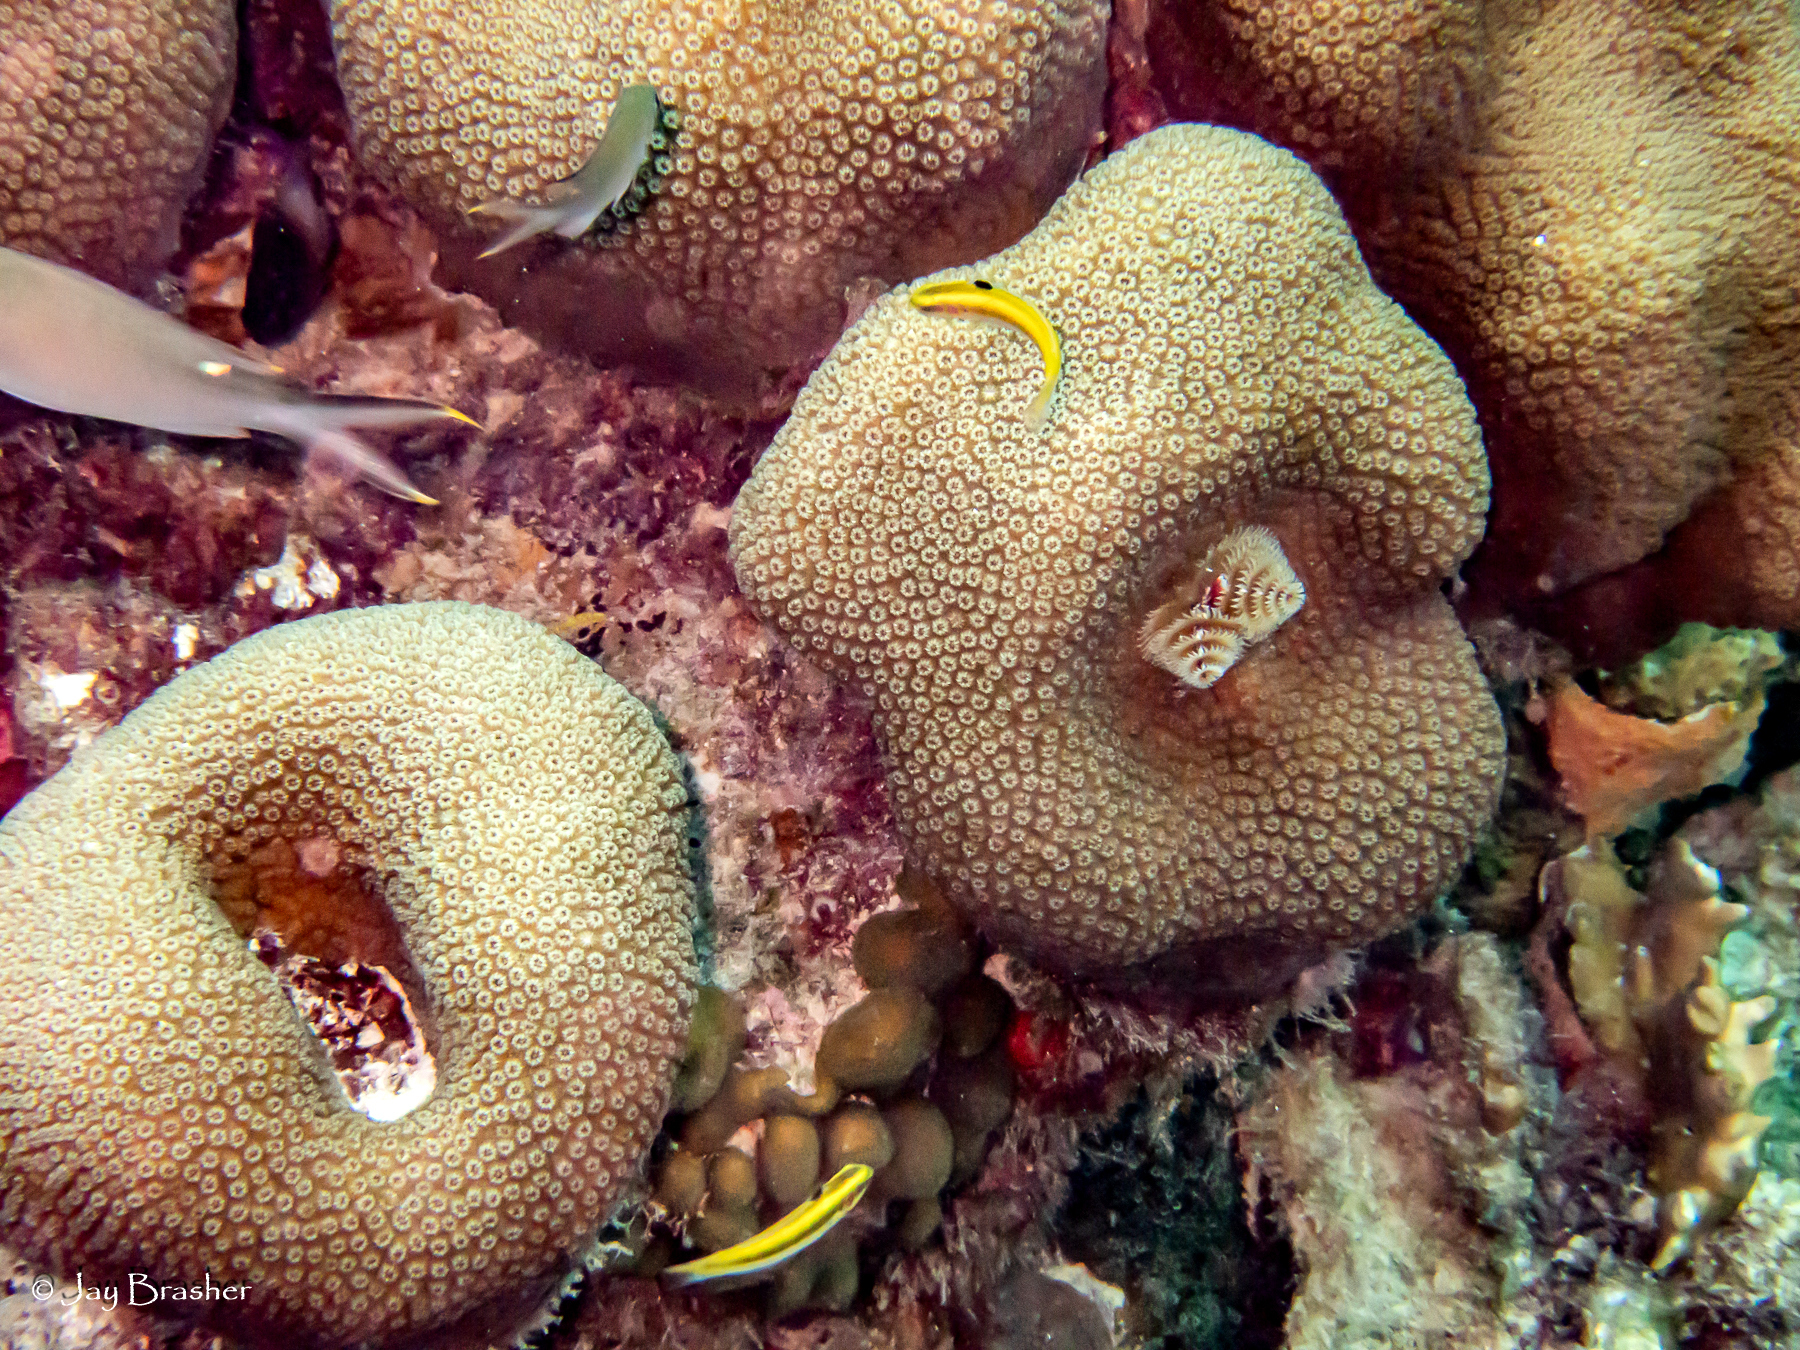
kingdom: Animalia
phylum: Annelida
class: Polychaeta
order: Sabellida
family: Serpulidae
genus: Spirobranchus
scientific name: Spirobranchus giganteus
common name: Christmas tree worm
